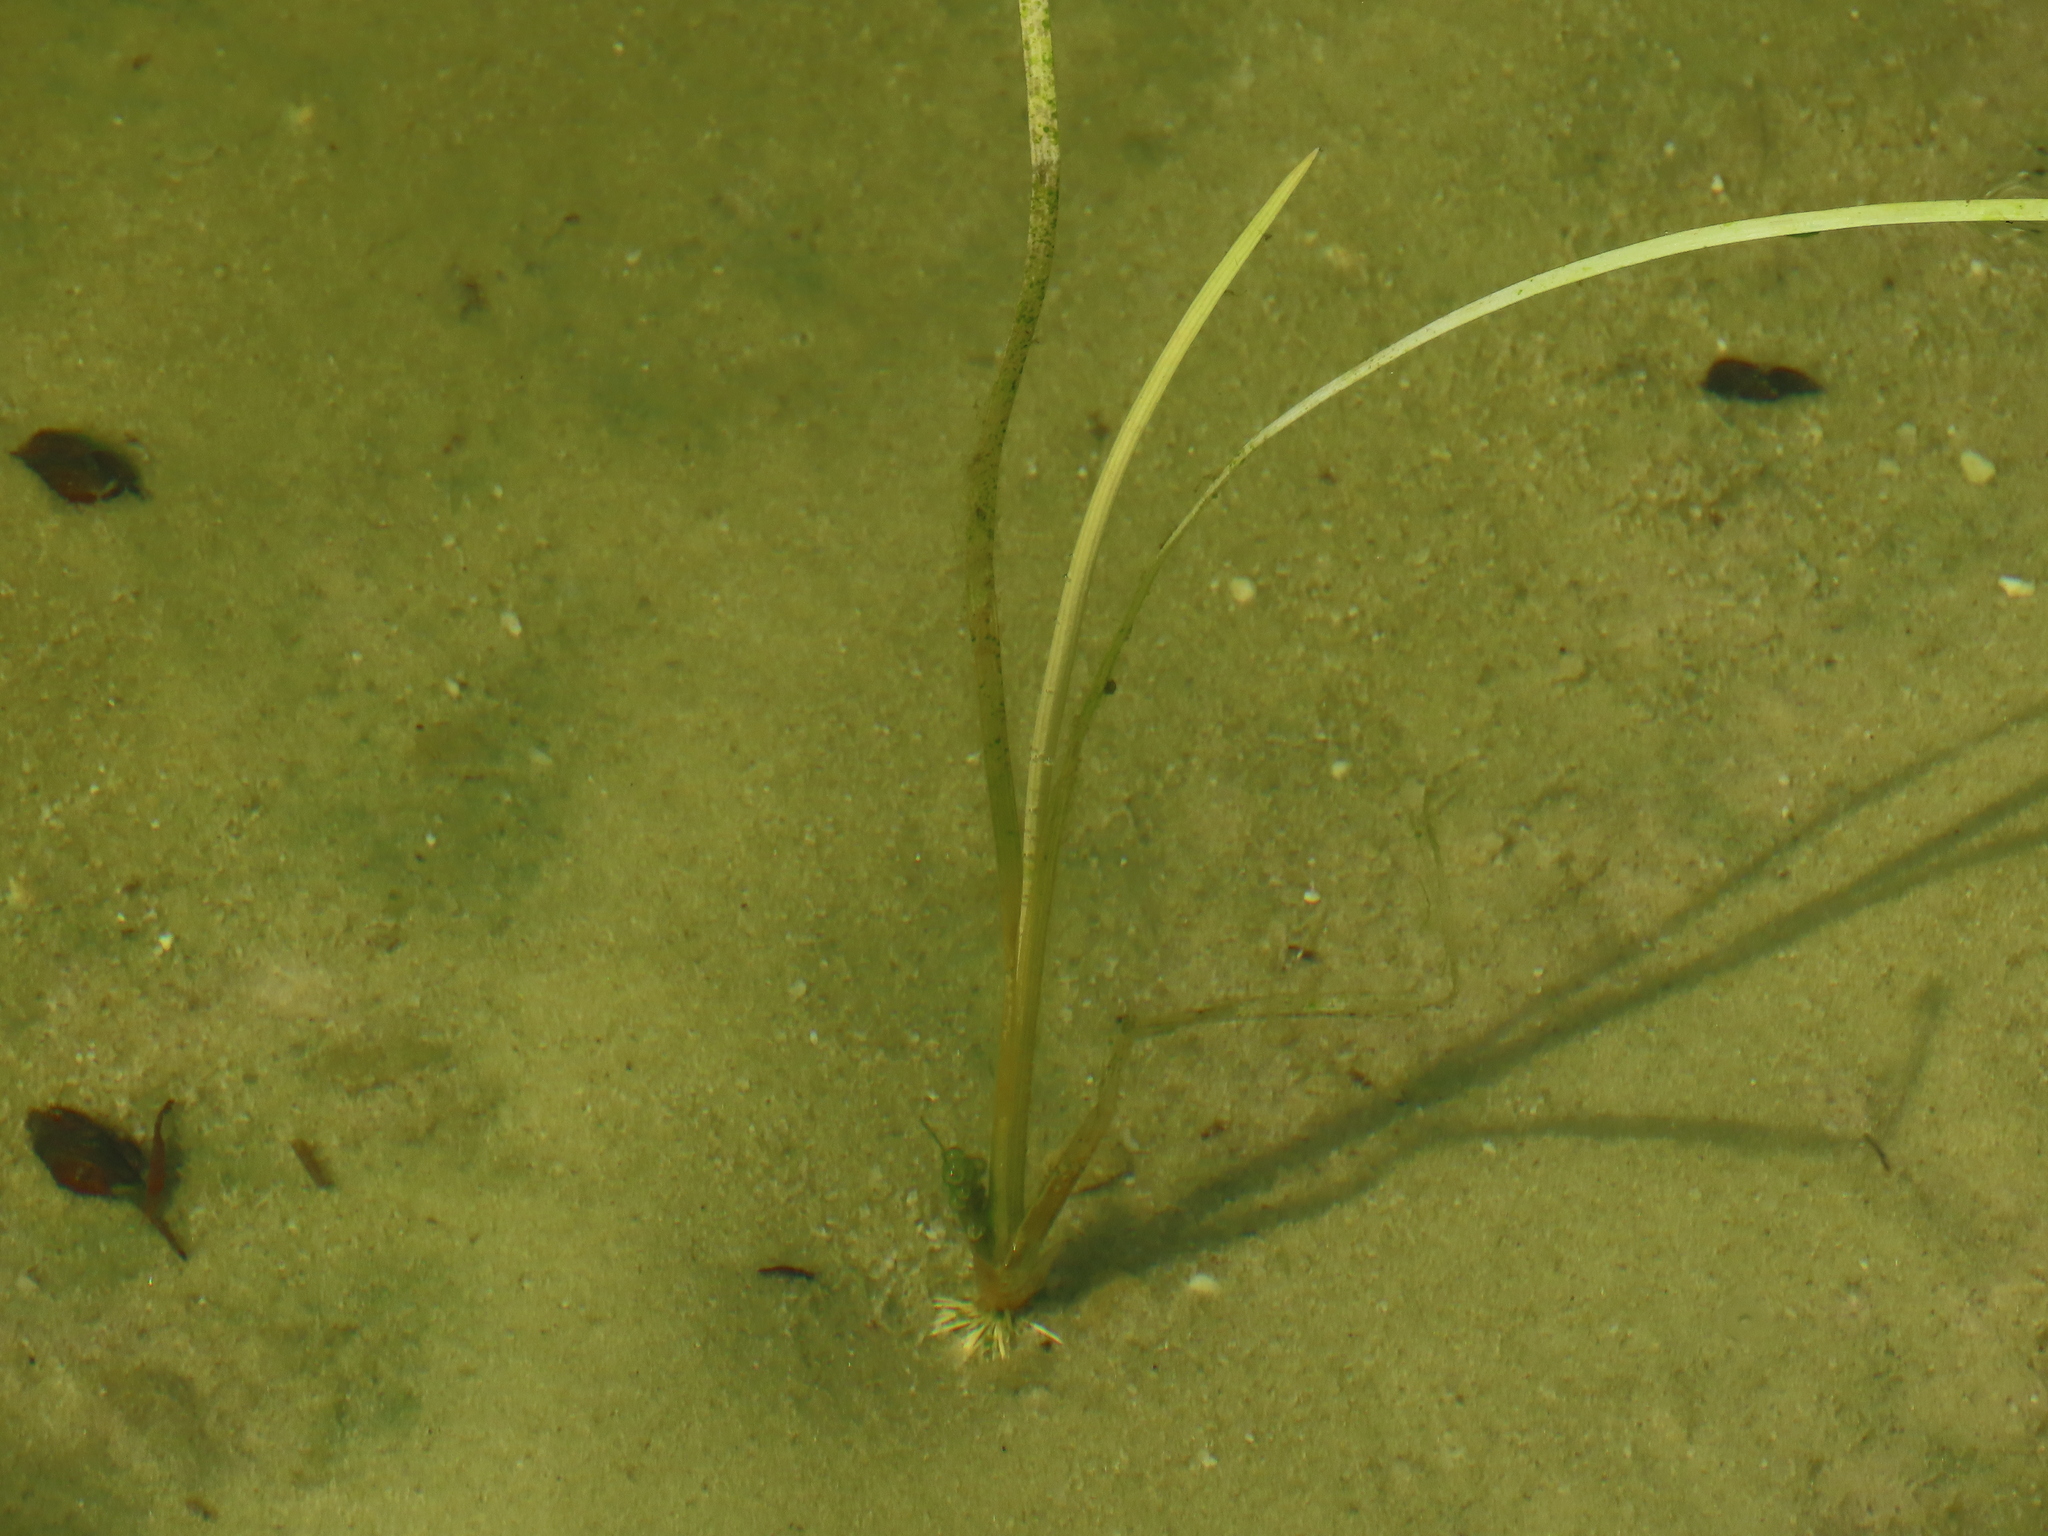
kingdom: Plantae
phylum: Tracheophyta
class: Liliopsida
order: Alismatales
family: Hydrocharitaceae
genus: Vallisneria
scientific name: Vallisneria americana
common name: American eelgrass
